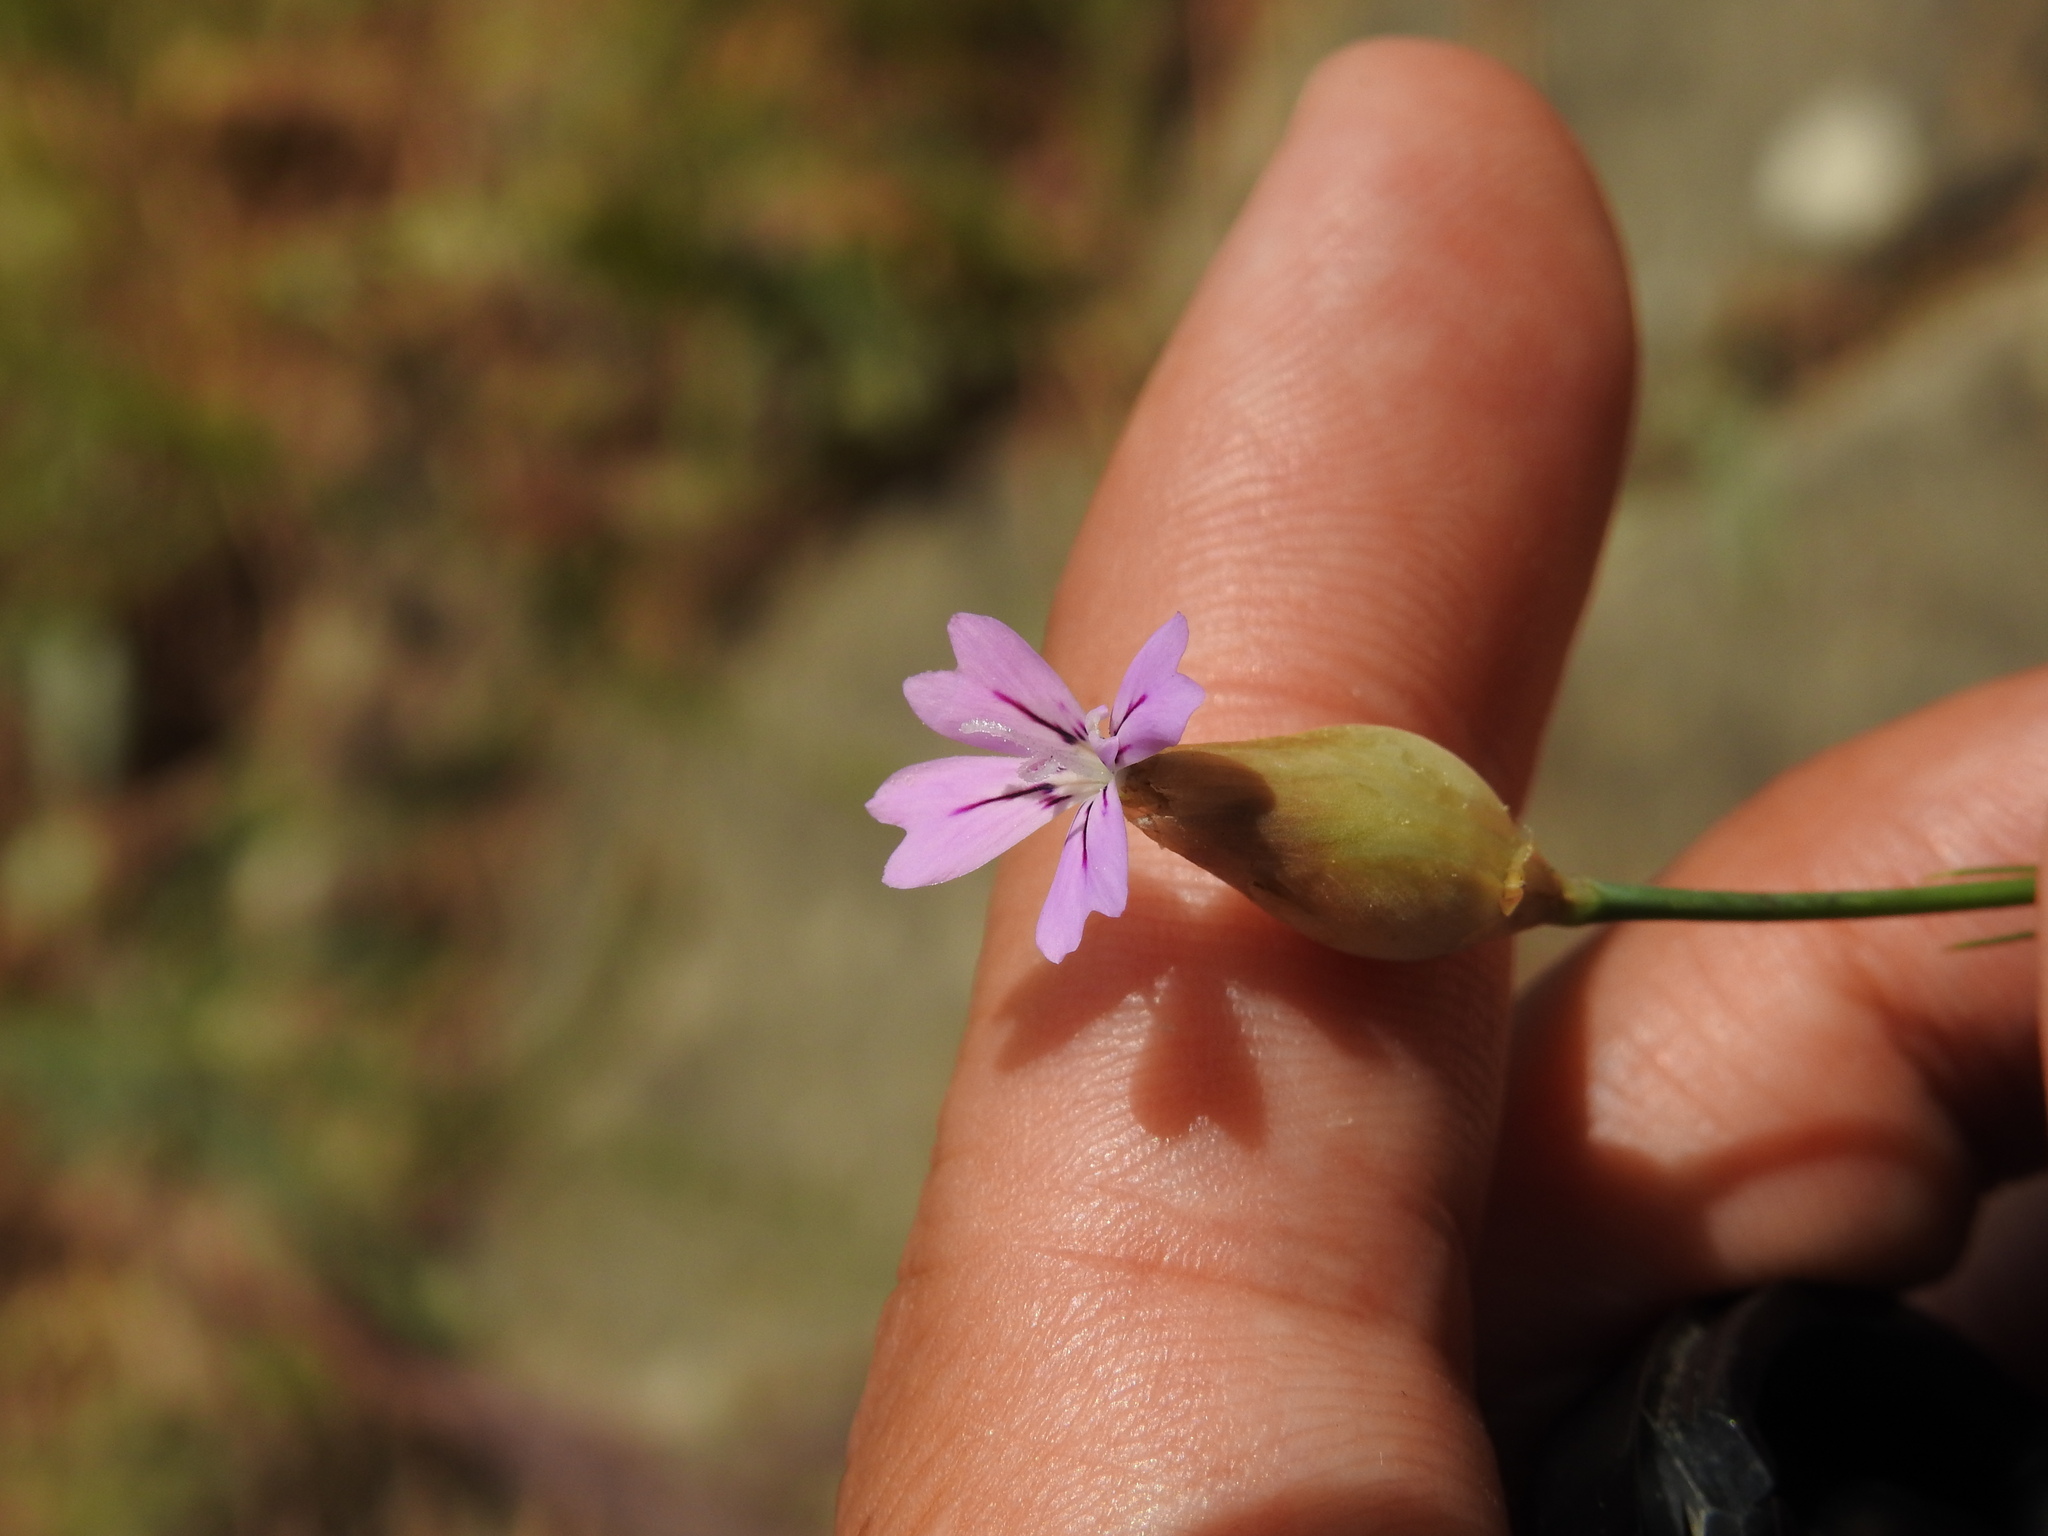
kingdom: Plantae
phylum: Tracheophyta
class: Magnoliopsida
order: Caryophyllales
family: Caryophyllaceae
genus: Petrorhagia
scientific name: Petrorhagia nanteuilii
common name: Proliferous pink
